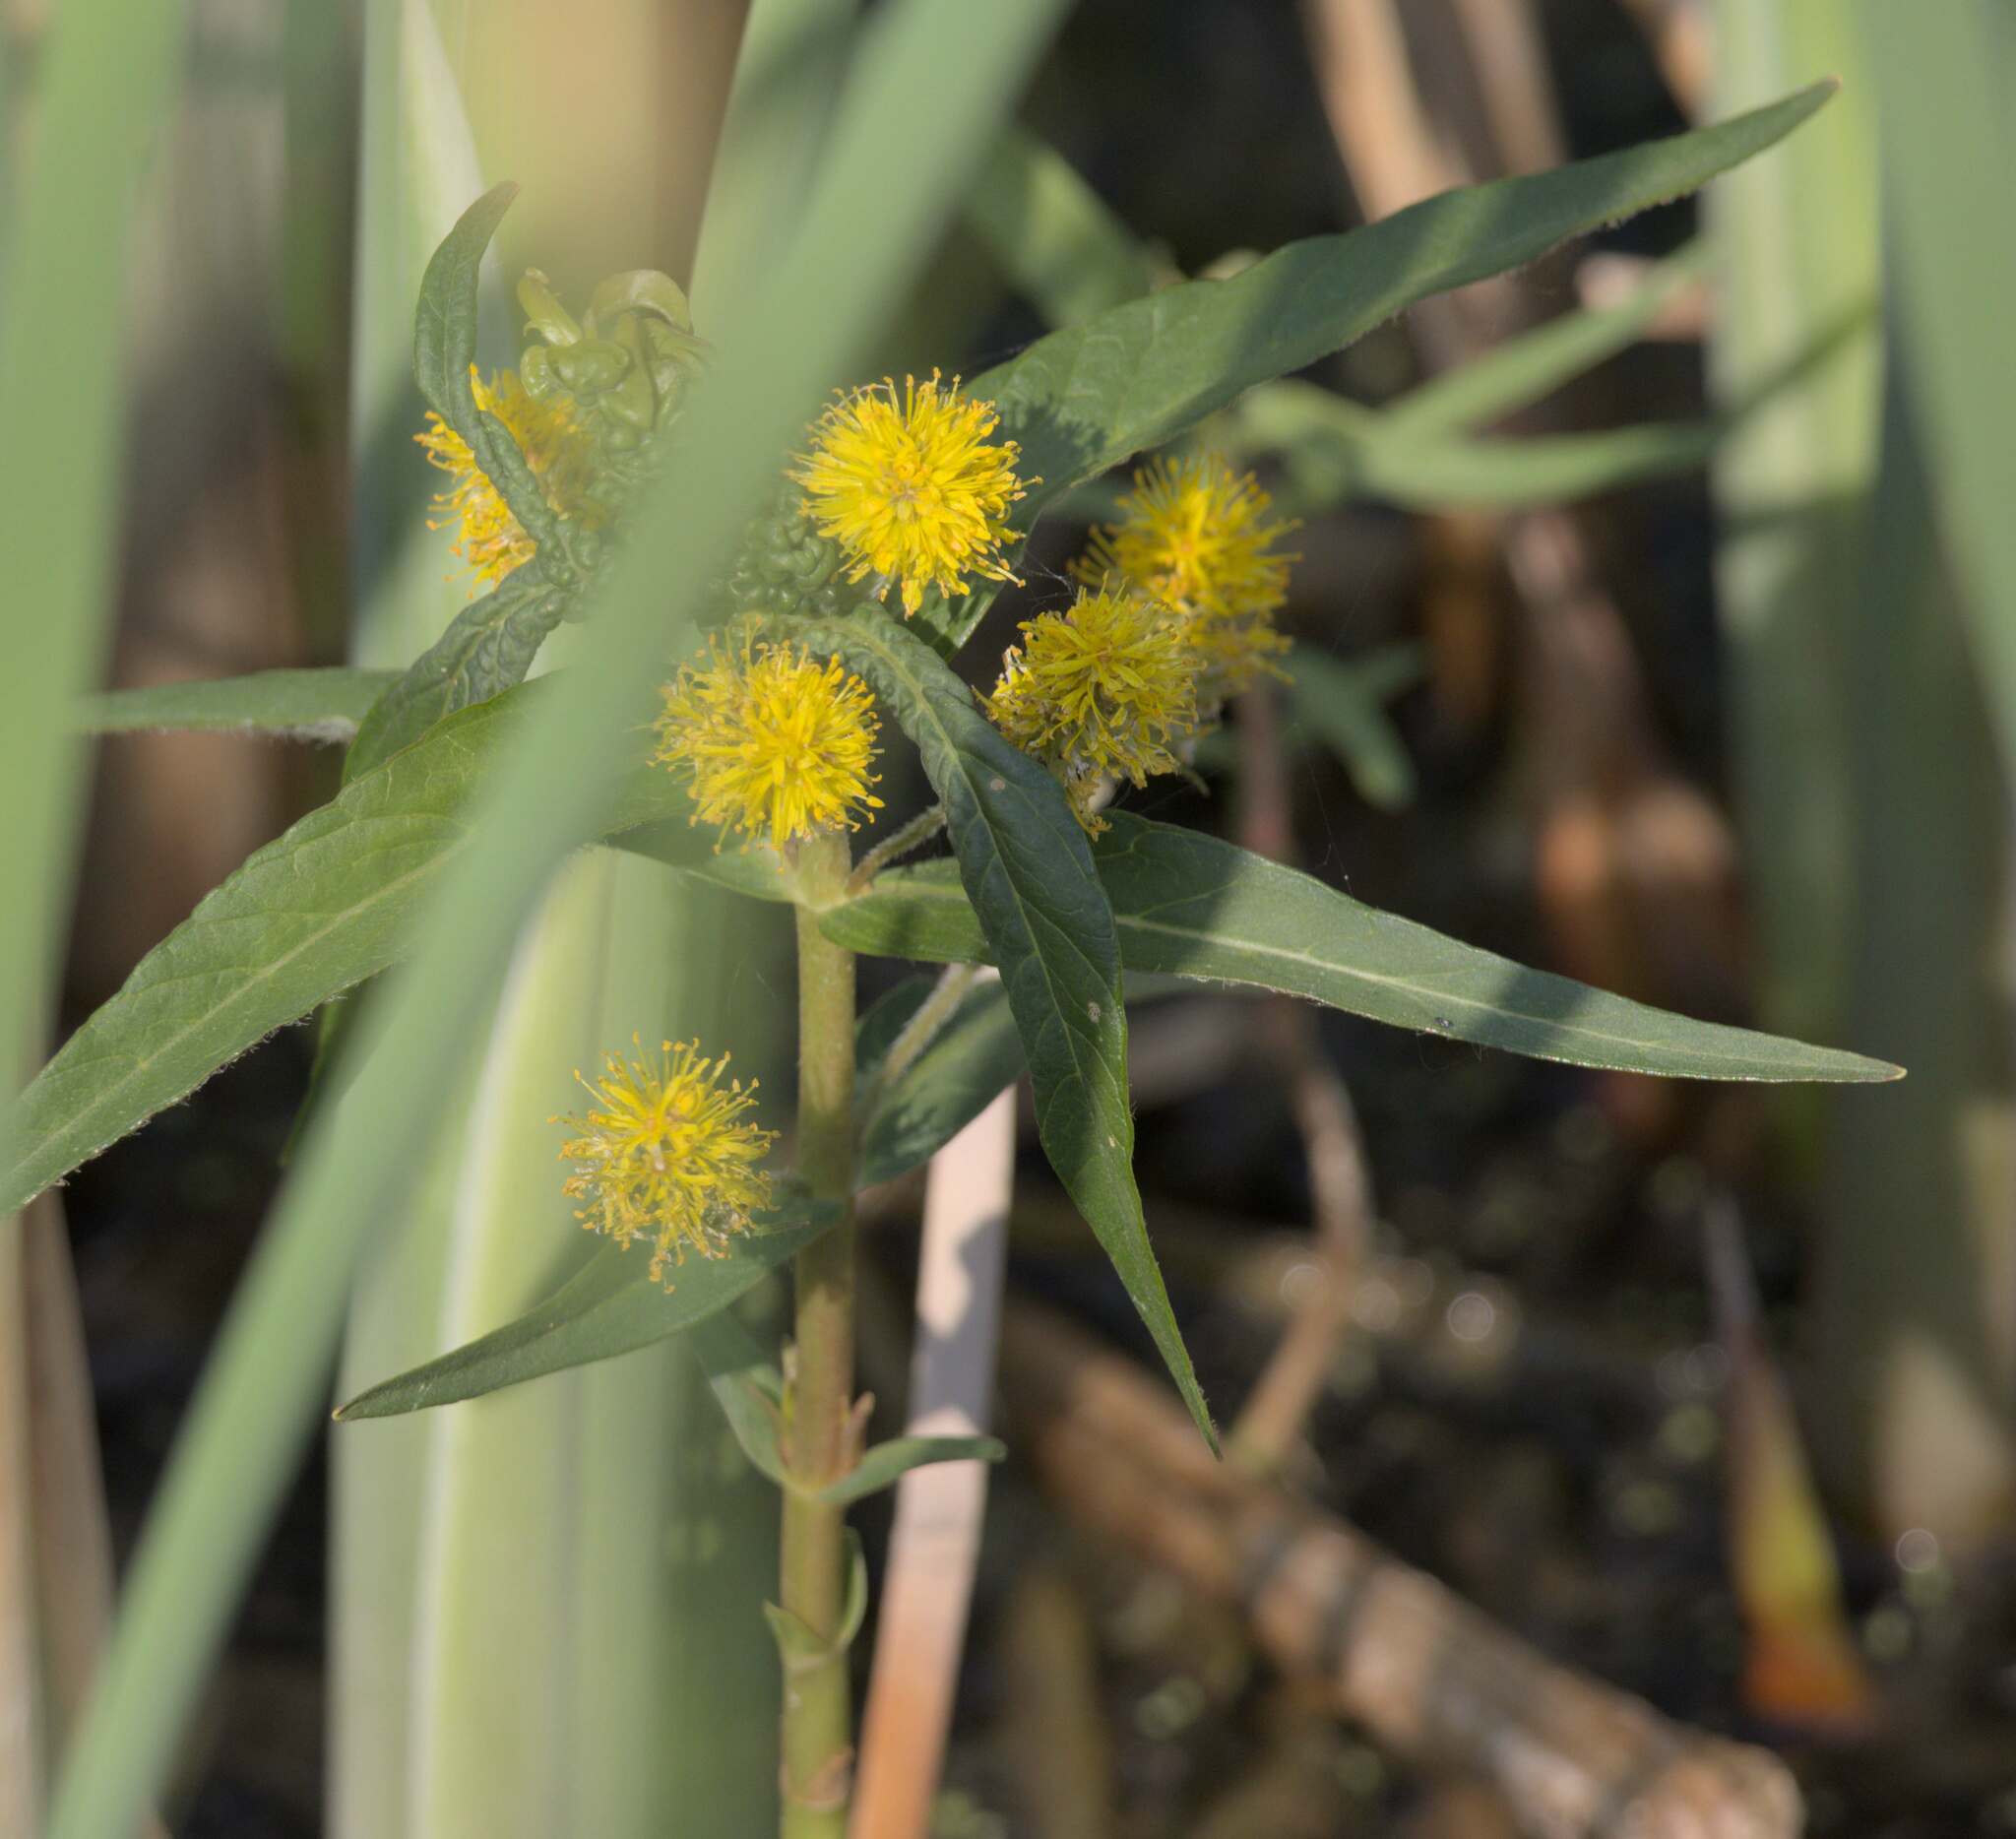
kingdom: Plantae
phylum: Tracheophyta
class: Magnoliopsida
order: Ericales
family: Primulaceae
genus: Lysimachia
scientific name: Lysimachia thyrsiflora
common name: Tufted loosestrife
